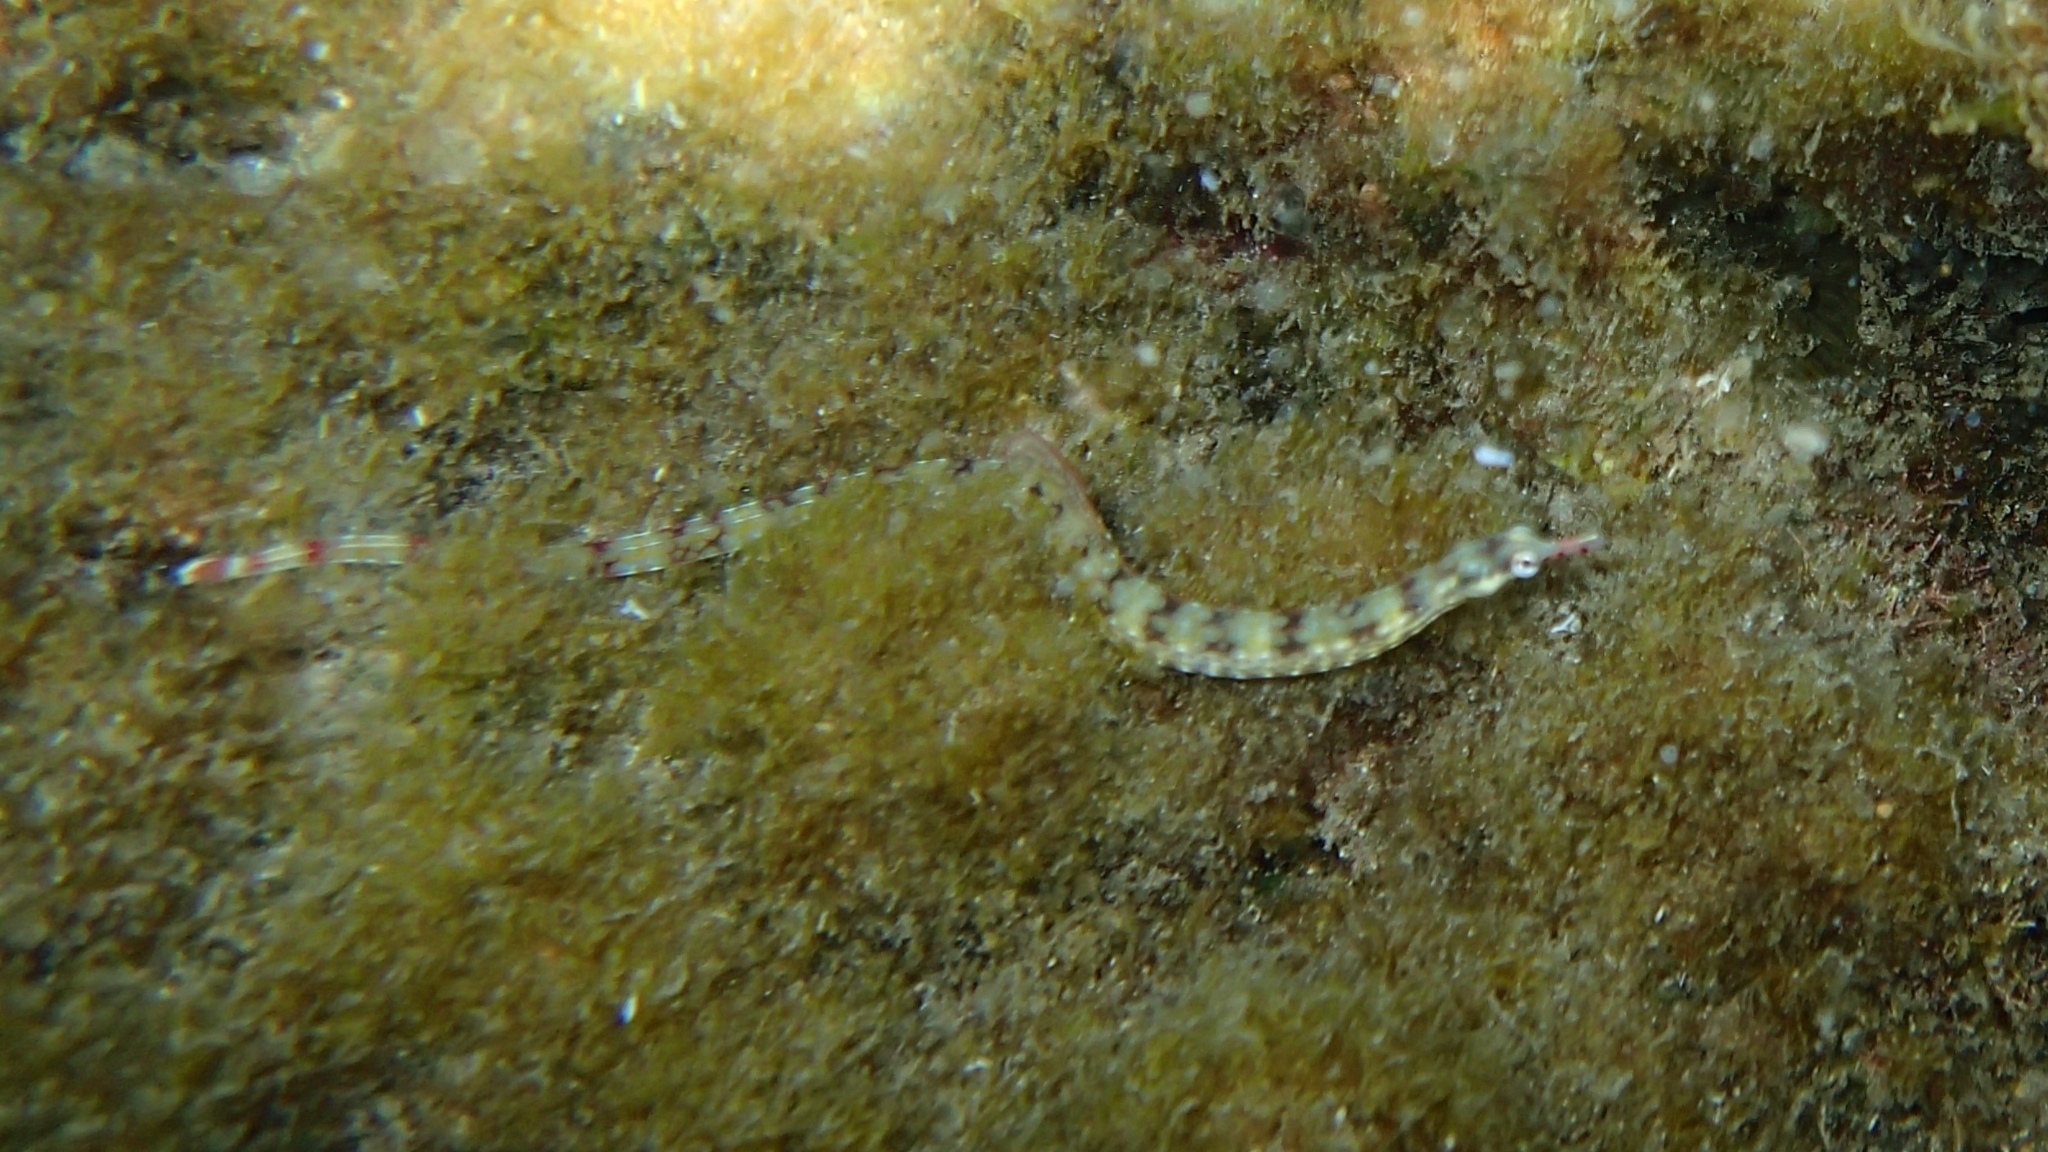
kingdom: Animalia
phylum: Chordata
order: Syngnathiformes
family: Syngnathidae
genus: Corythoichthys
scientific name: Corythoichthys flavofasciatus
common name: Banded pipefish
